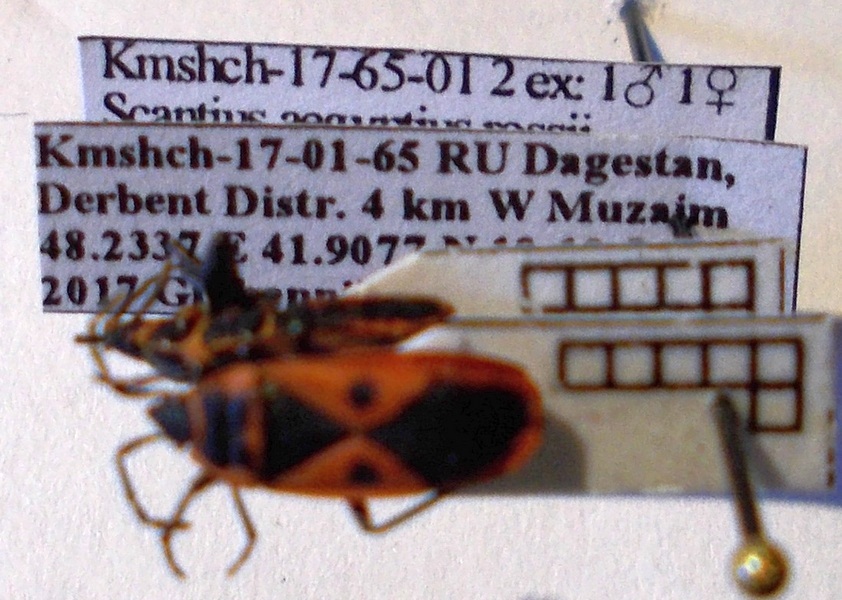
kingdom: Animalia
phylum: Arthropoda
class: Insecta
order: Hemiptera
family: Pyrrhocoridae
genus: Scantius
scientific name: Scantius aegyptius
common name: Red bug
